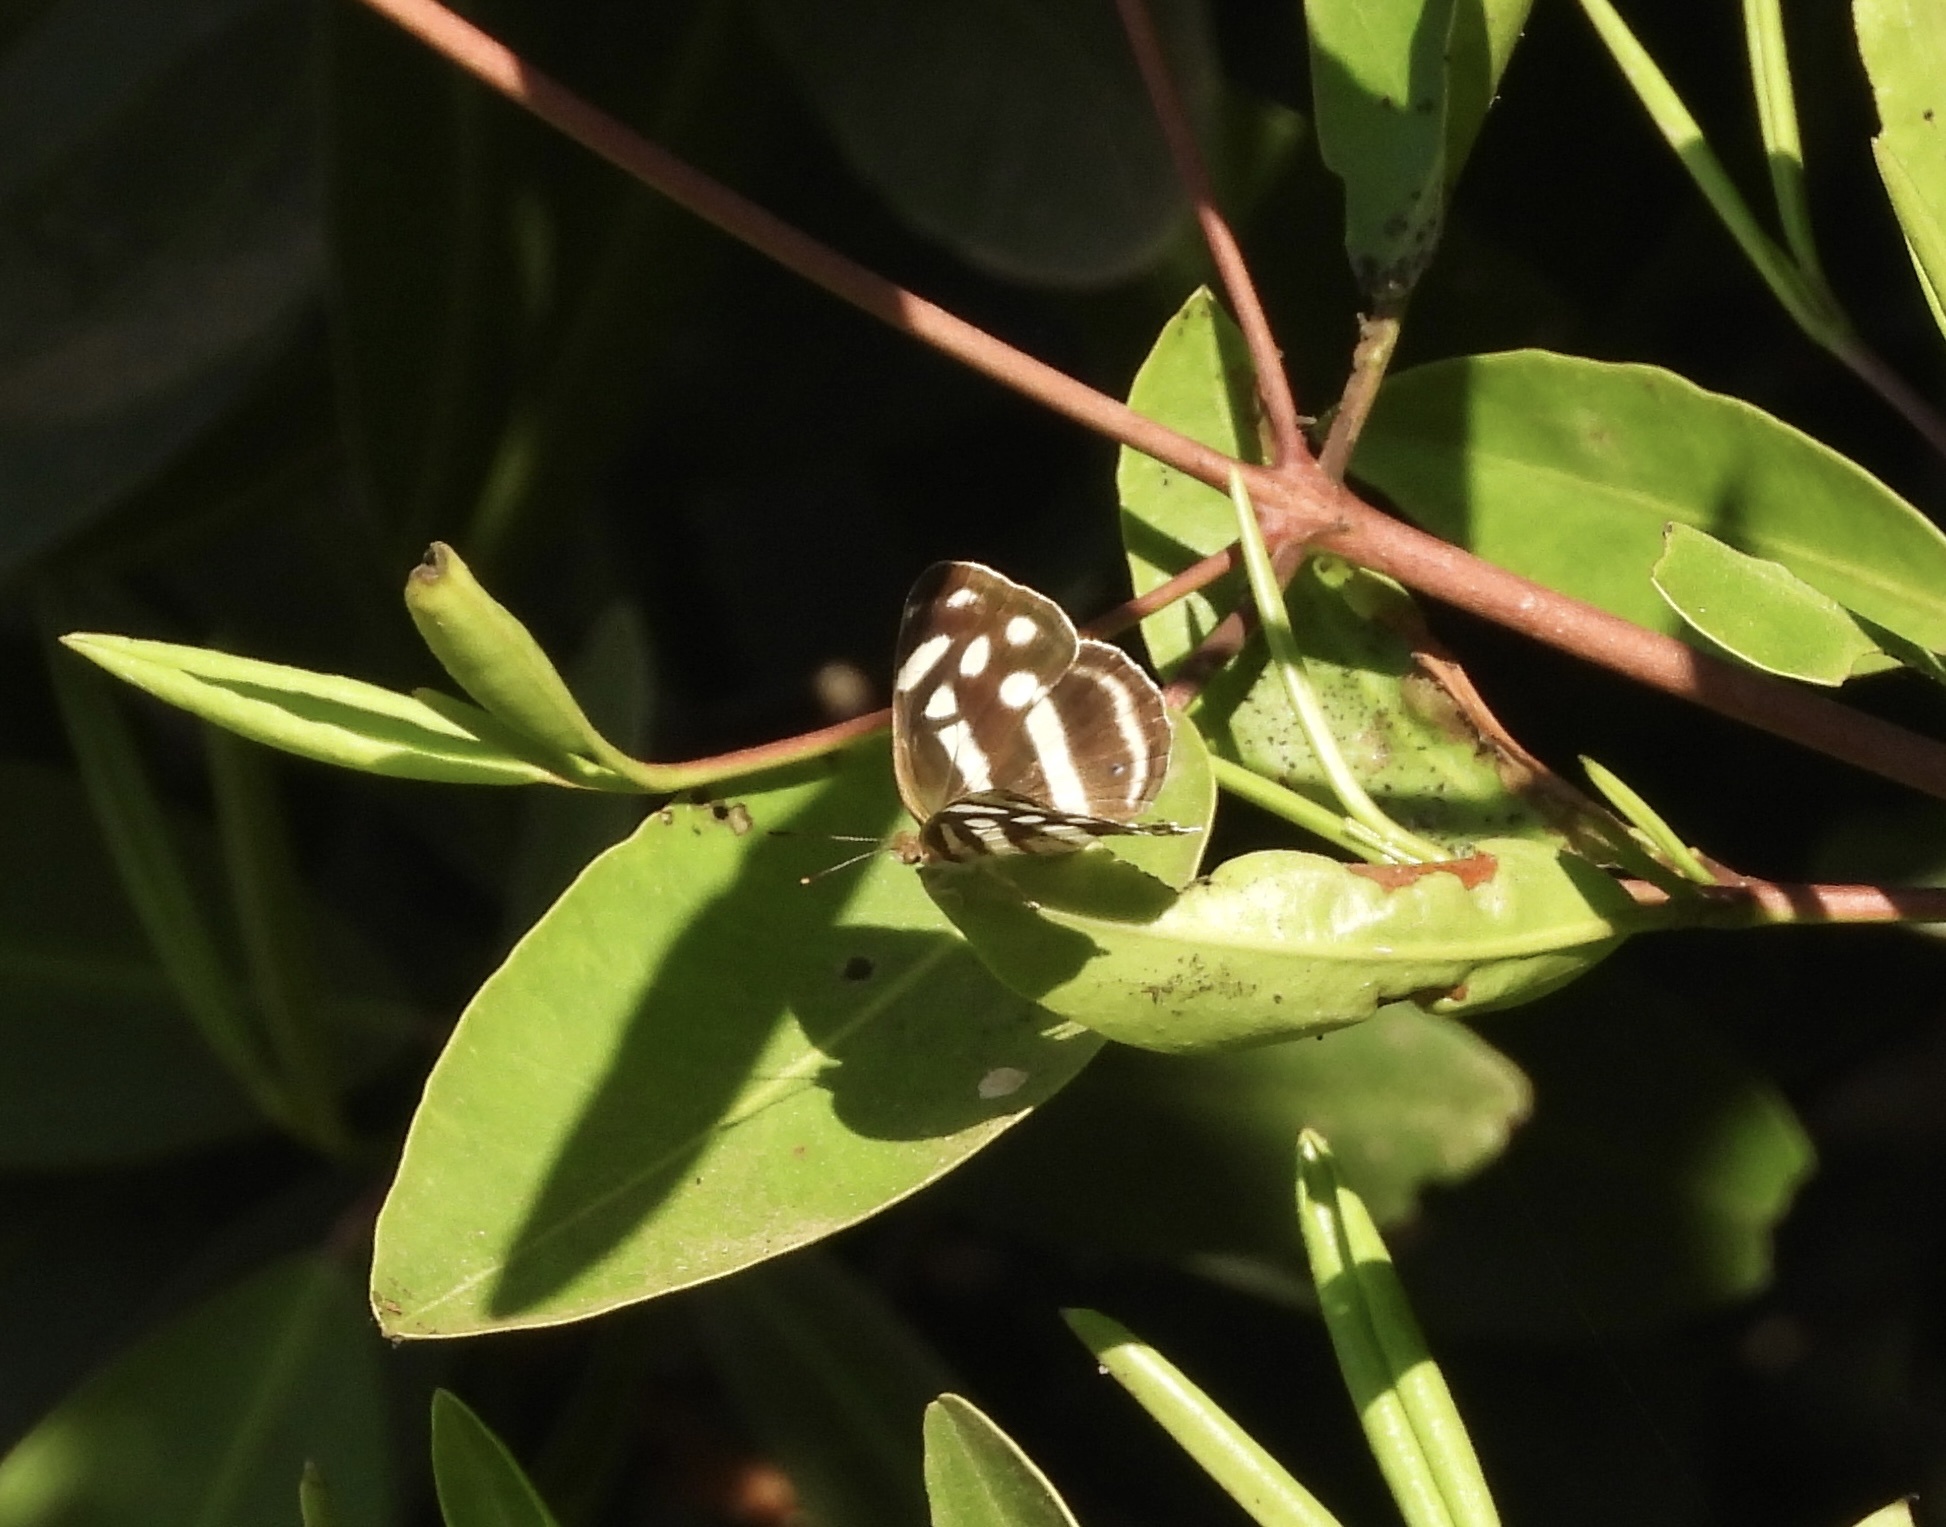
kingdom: Animalia
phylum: Arthropoda
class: Insecta
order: Lepidoptera
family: Nymphalidae
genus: Dynamine
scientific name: Dynamine mylitta
